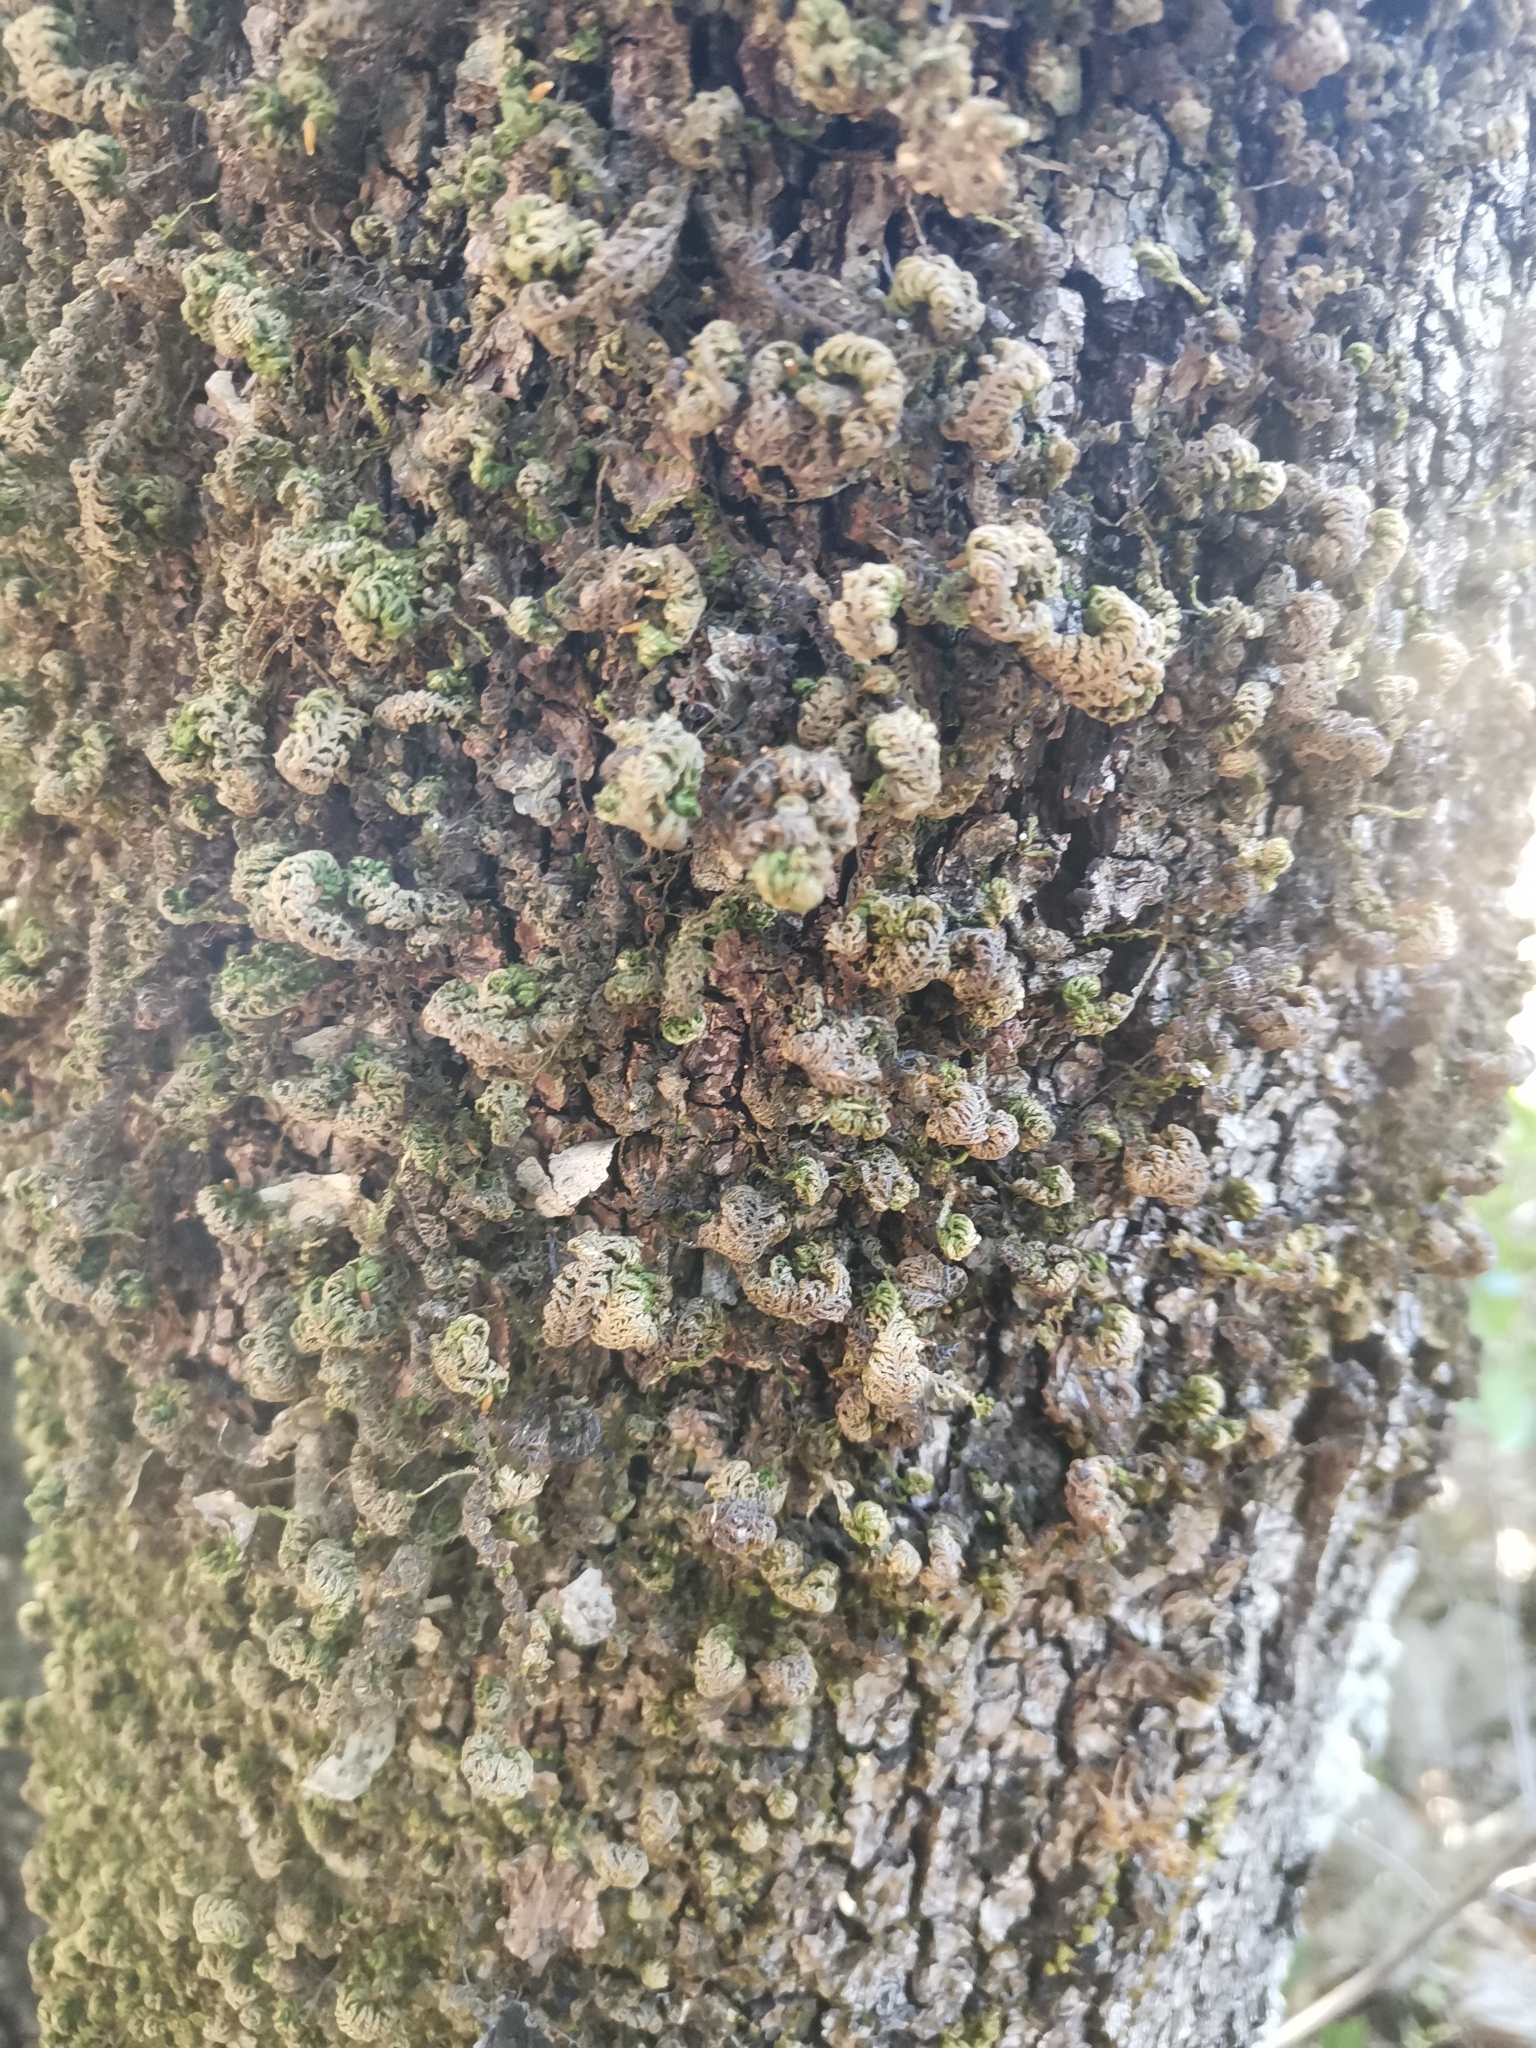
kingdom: Plantae
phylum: Bryophyta
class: Bryopsida
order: Hypnales
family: Neckeraceae
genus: Leptodon
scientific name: Leptodon smithii
